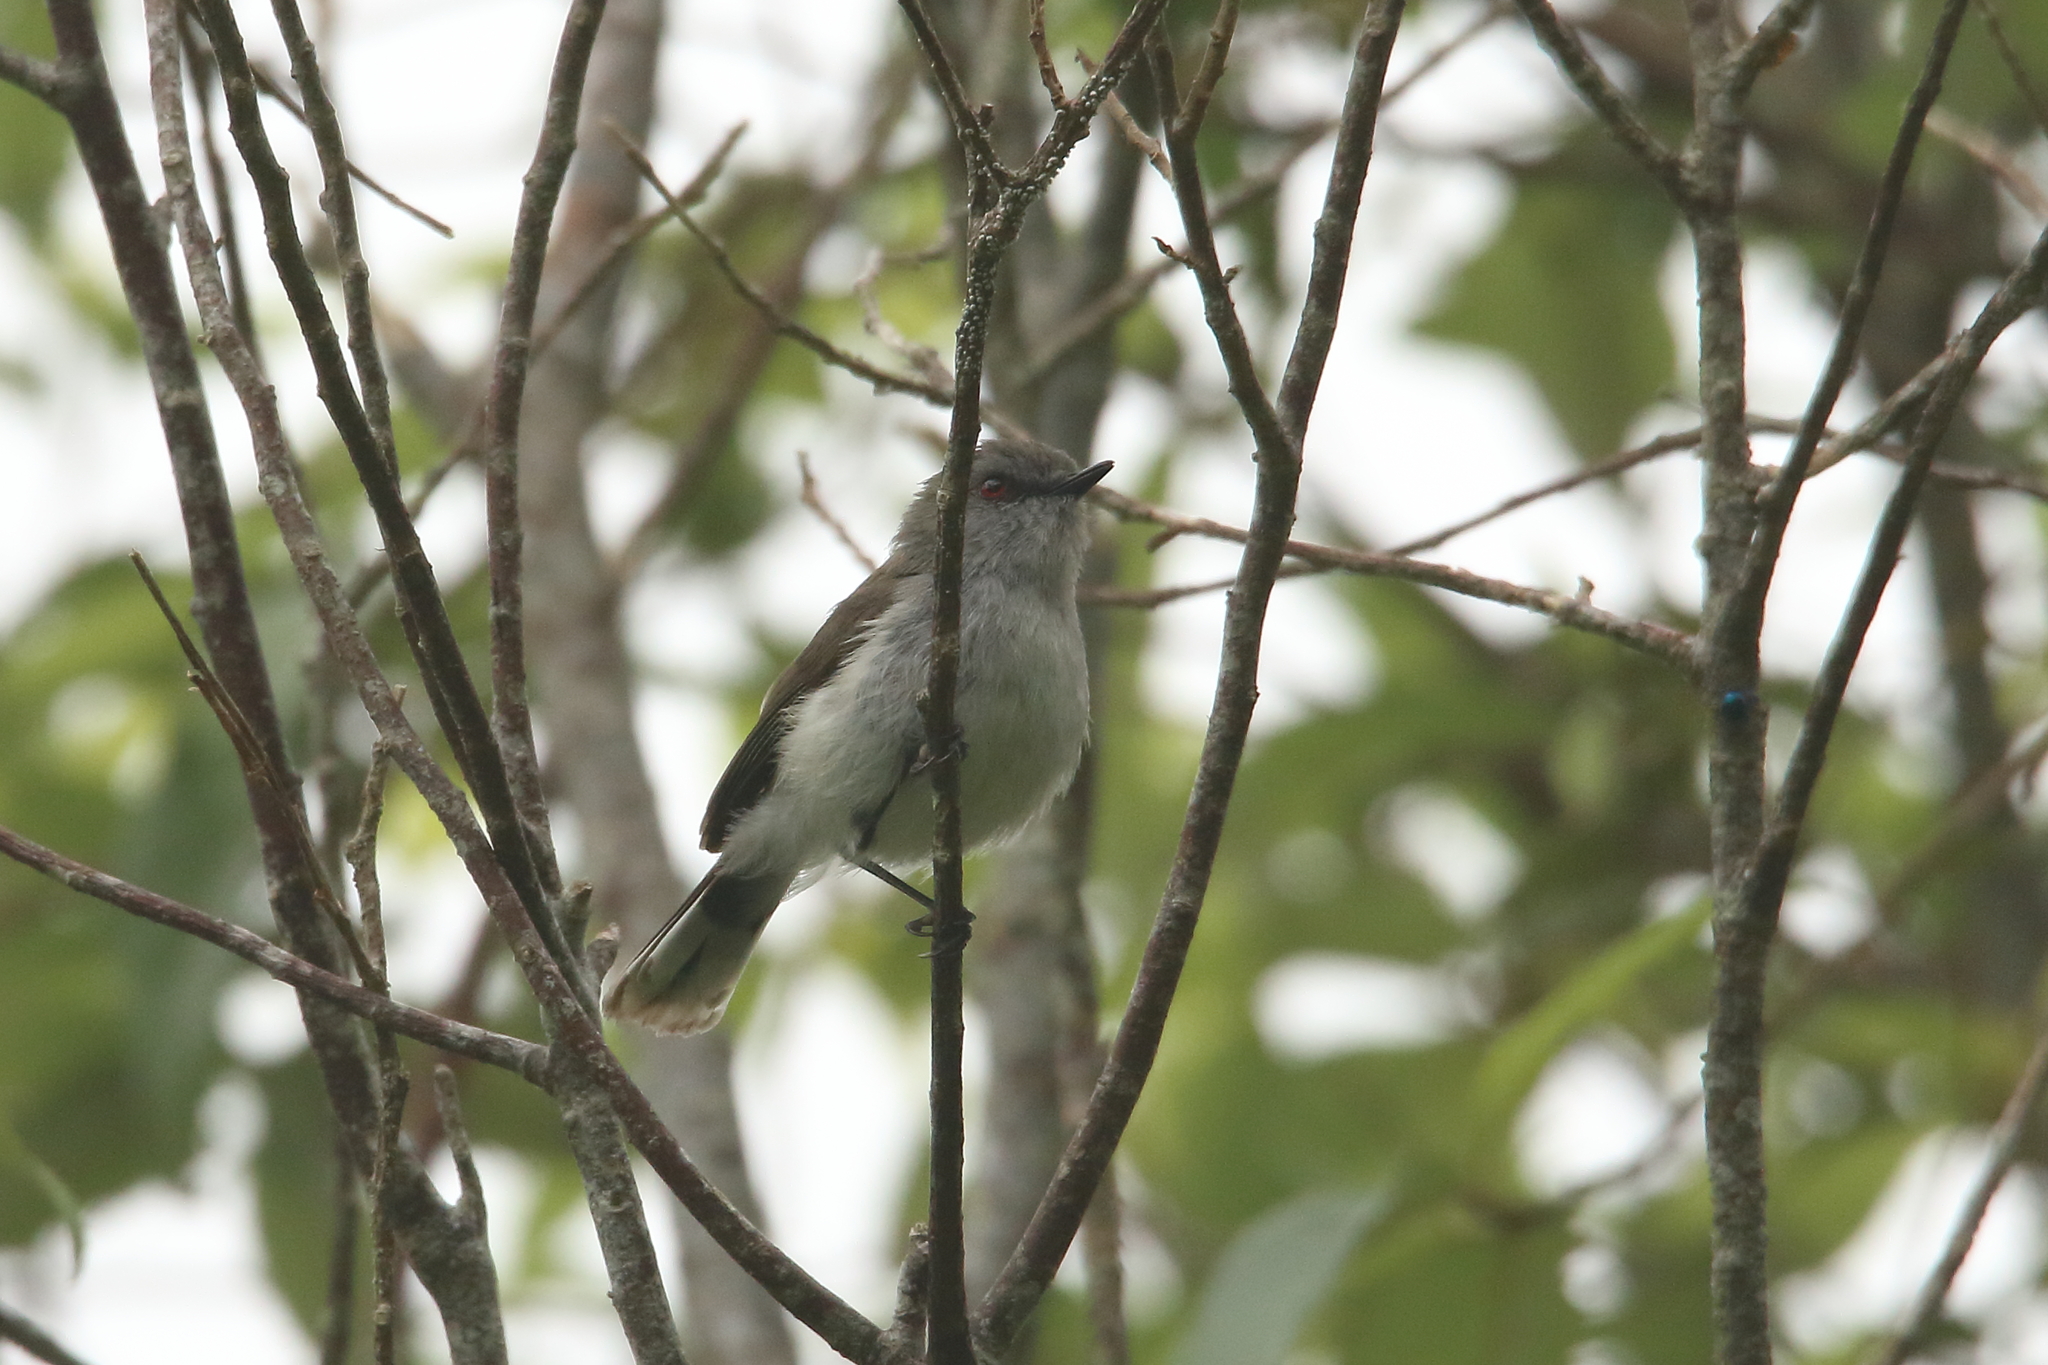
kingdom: Animalia
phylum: Chordata
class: Aves
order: Passeriformes
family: Acanthizidae
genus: Gerygone
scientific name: Gerygone igata
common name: Grey gerygone
